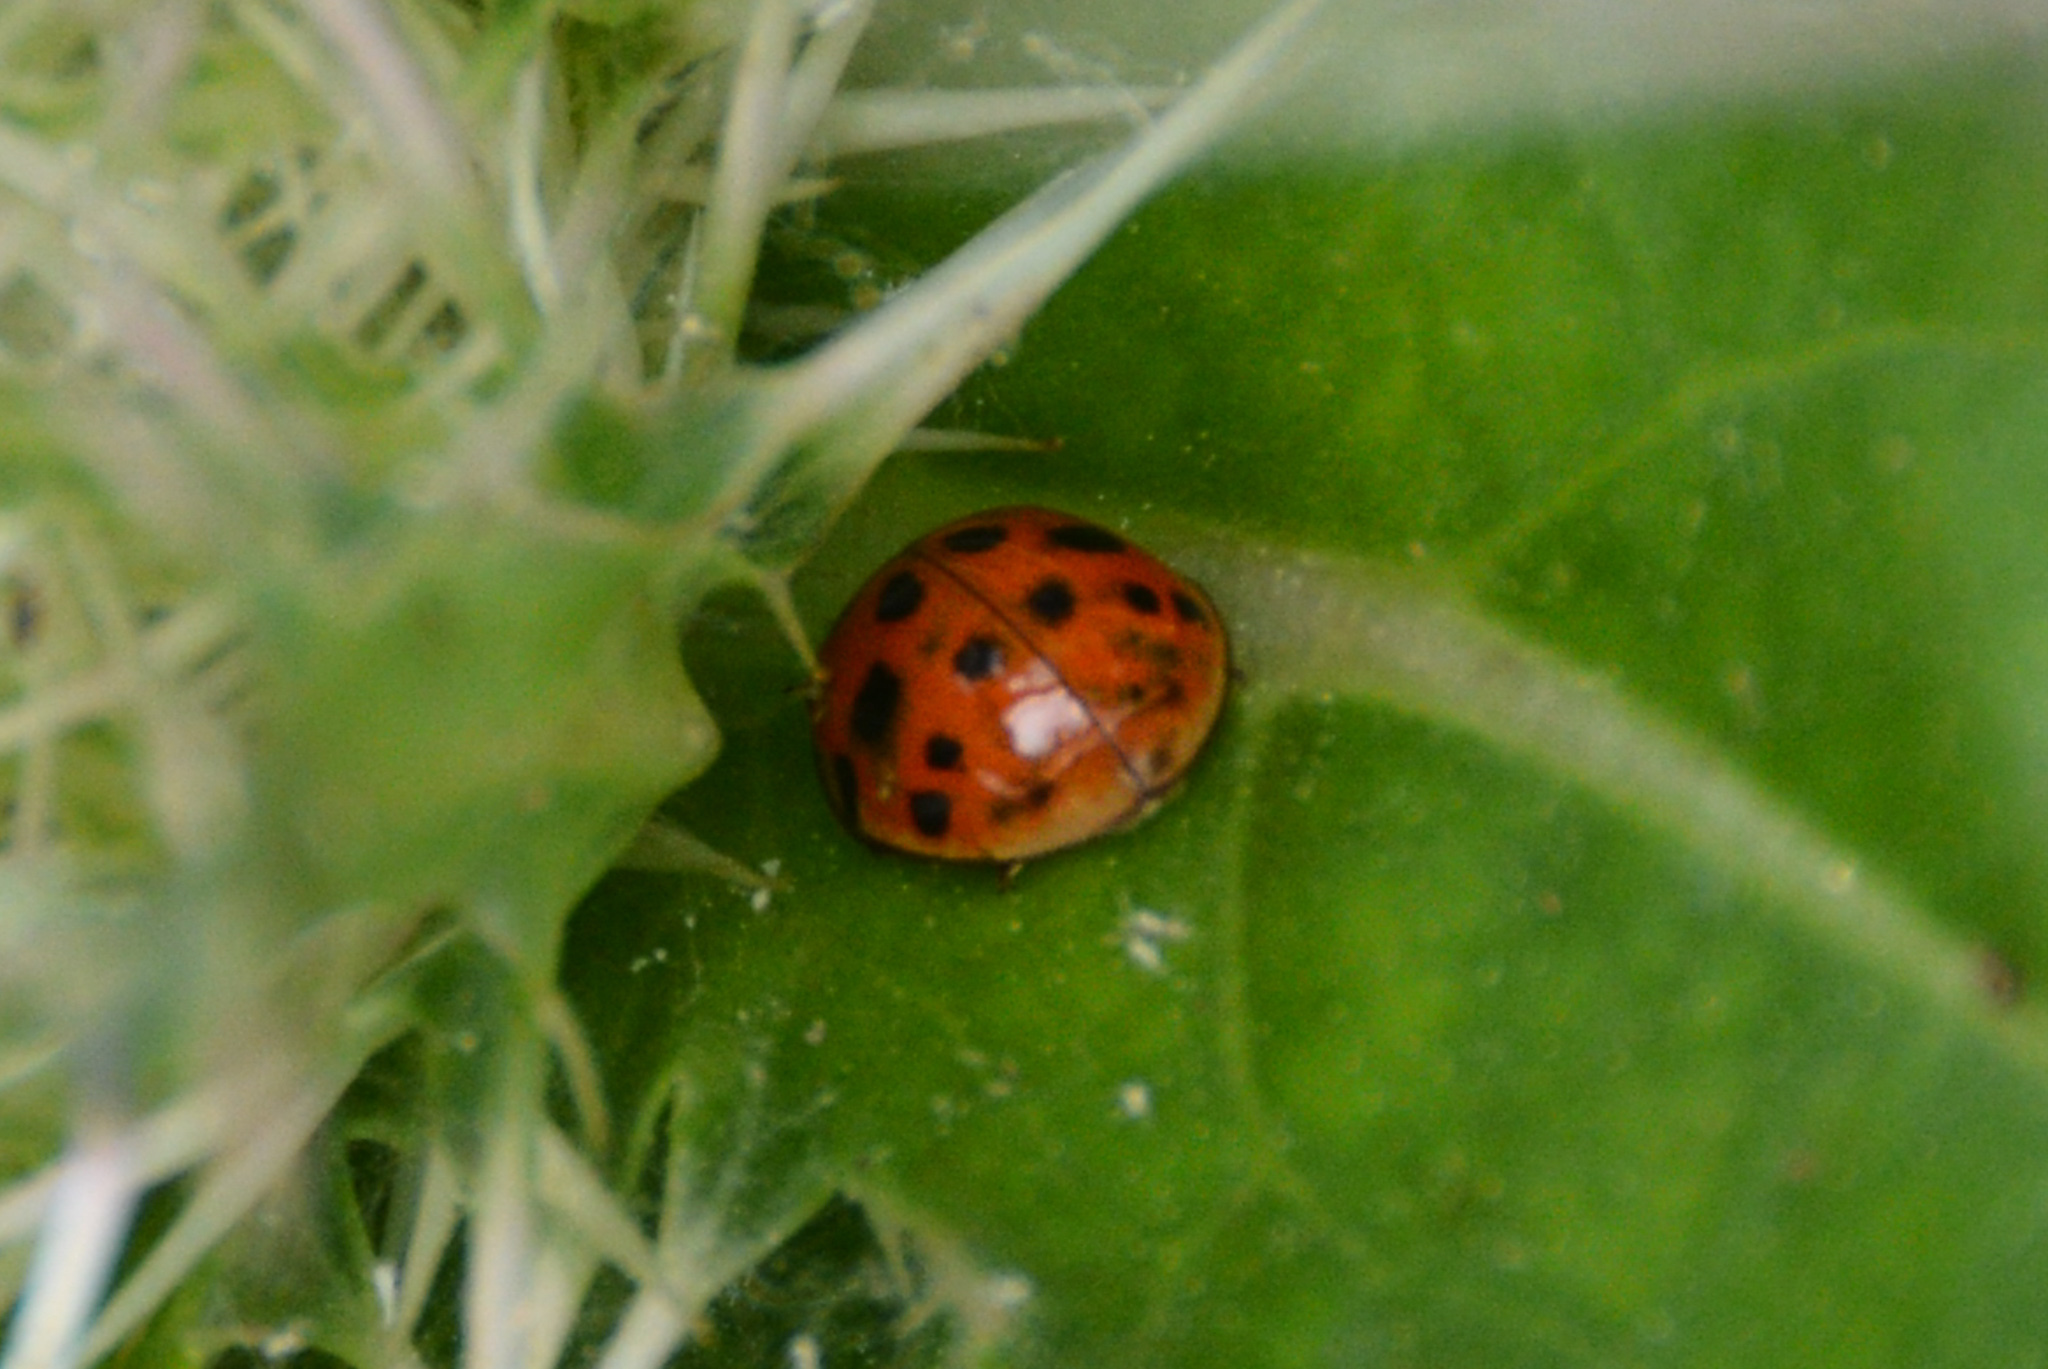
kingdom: Animalia
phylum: Arthropoda
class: Insecta
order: Coleoptera
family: Coccinellidae
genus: Harmonia
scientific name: Harmonia axyridis
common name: Harlequin ladybird
